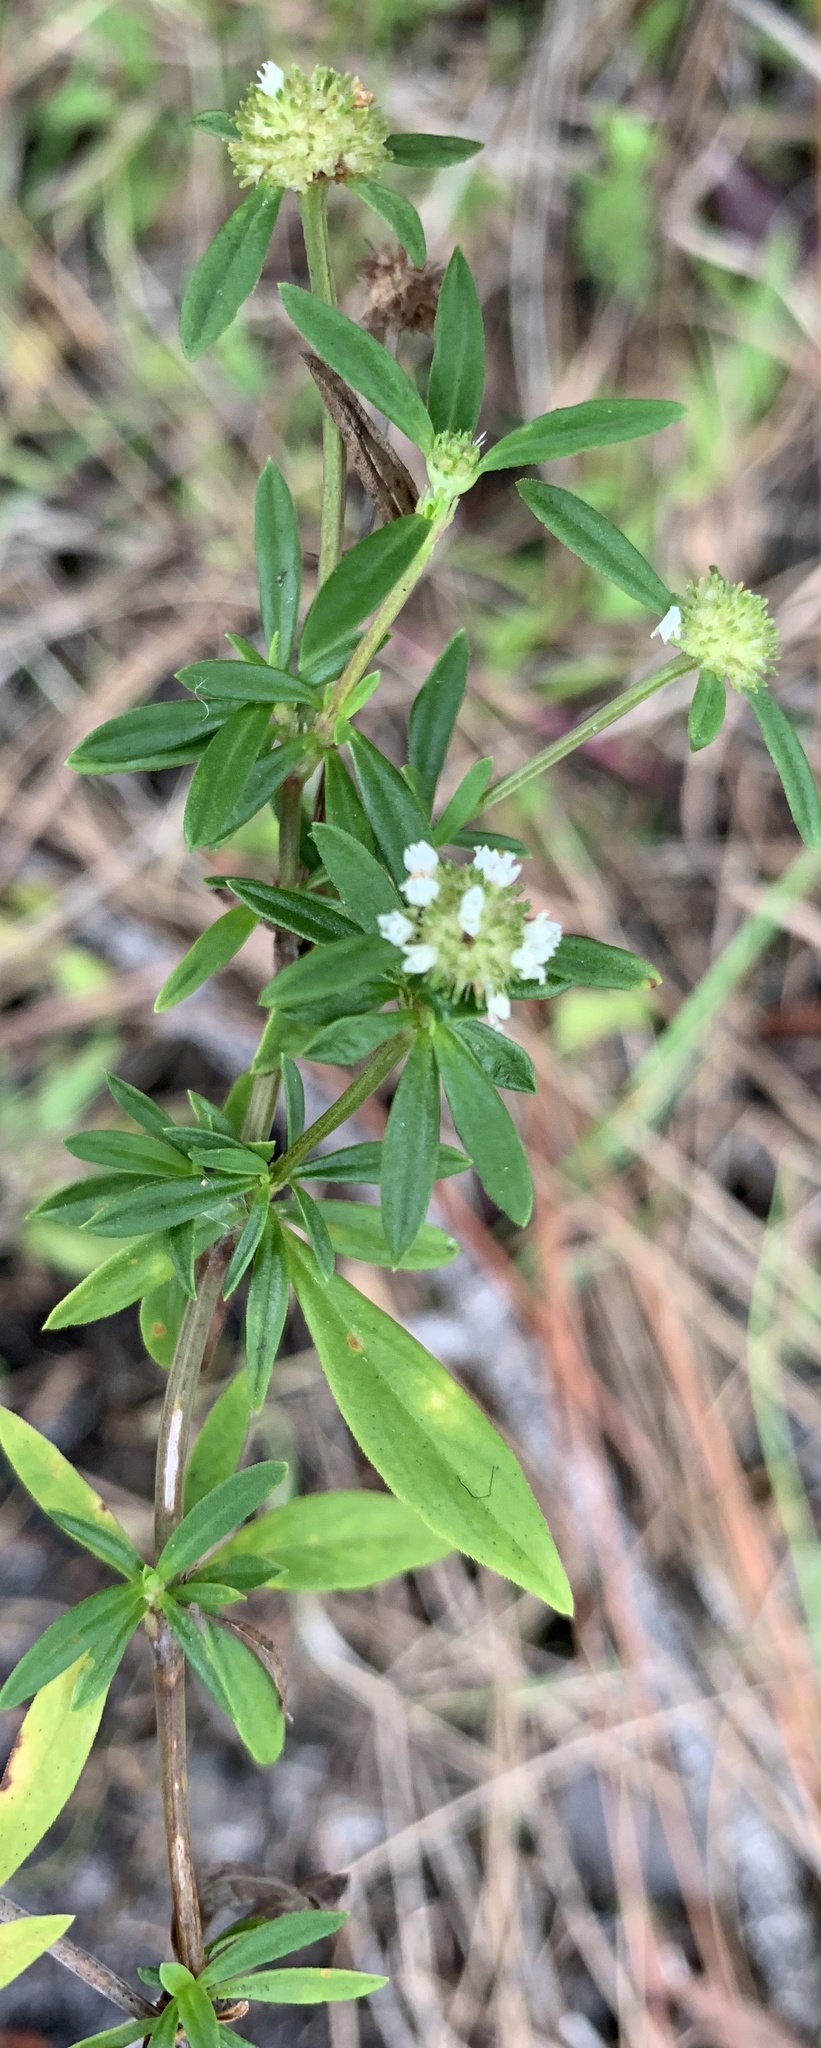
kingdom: Plantae
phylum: Tracheophyta
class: Magnoliopsida
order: Gentianales
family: Rubiaceae
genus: Spermacoce
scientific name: Spermacoce verticillata
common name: Shrubby false buttonweed
